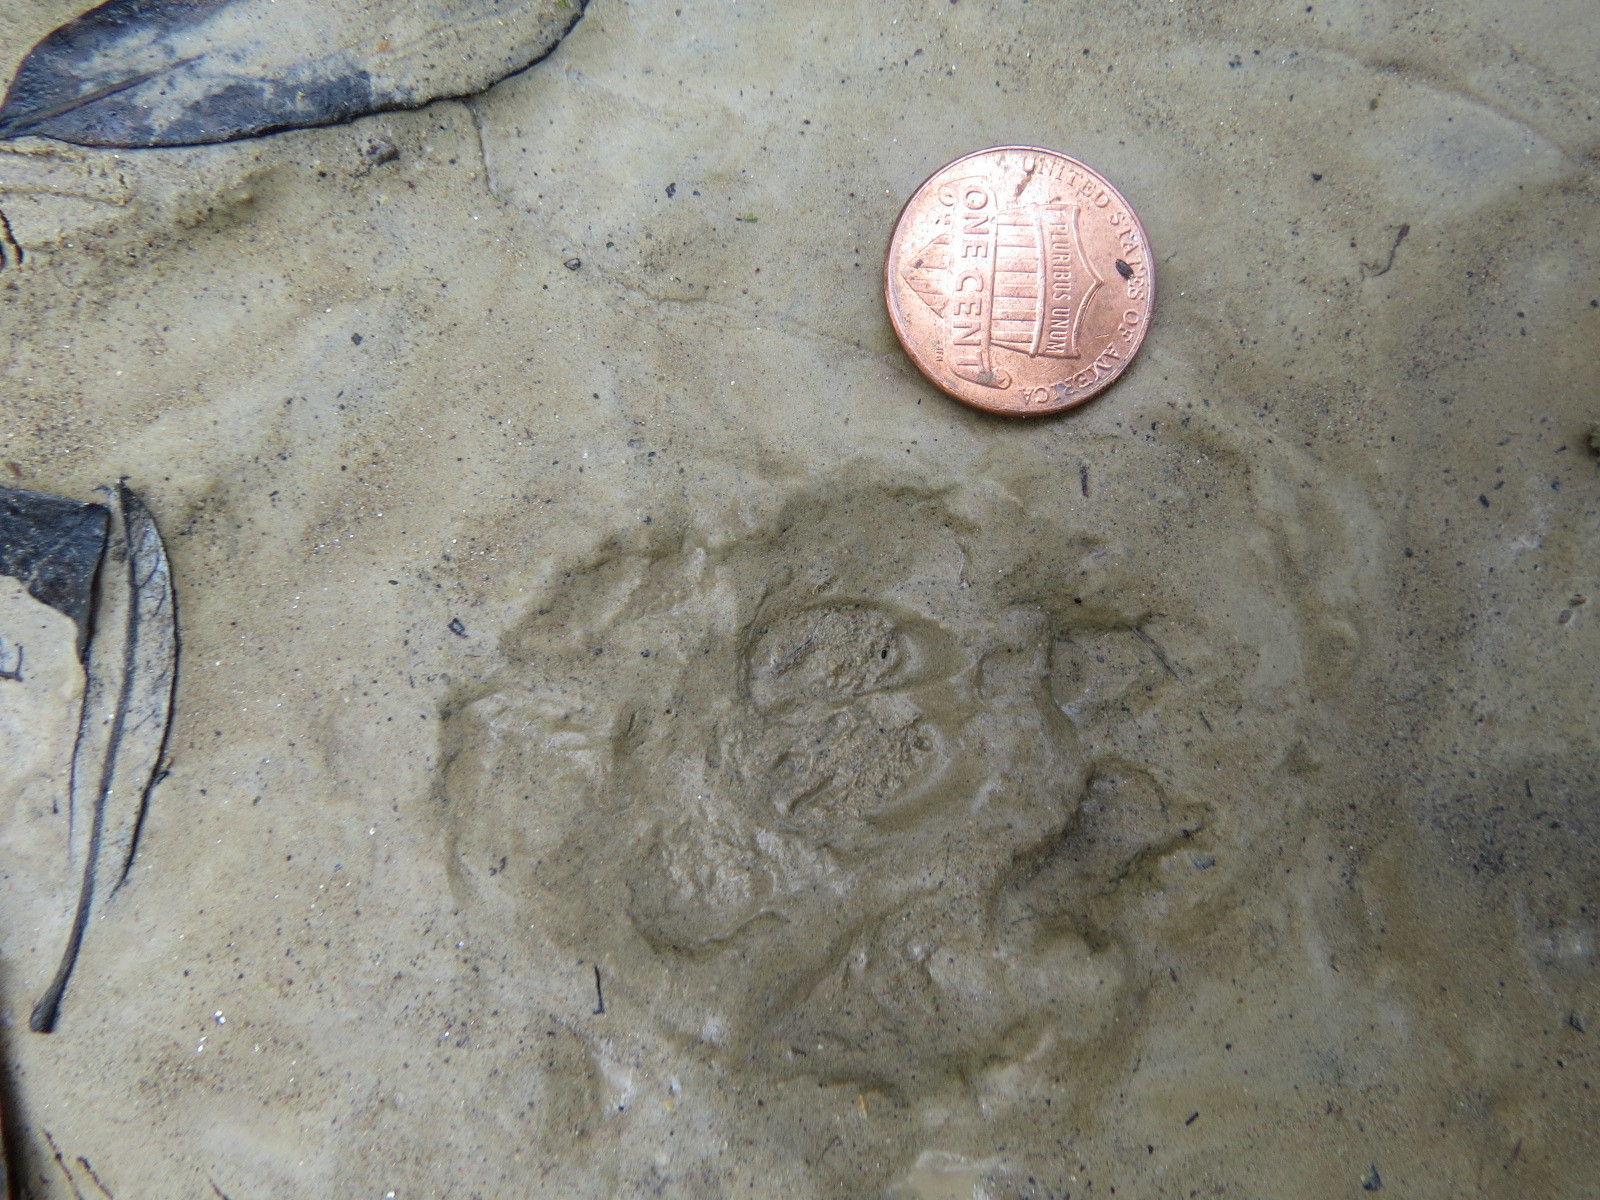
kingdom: Animalia
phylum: Chordata
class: Mammalia
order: Carnivora
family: Canidae
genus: Urocyon
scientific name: Urocyon cinereoargenteus
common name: Gray fox
